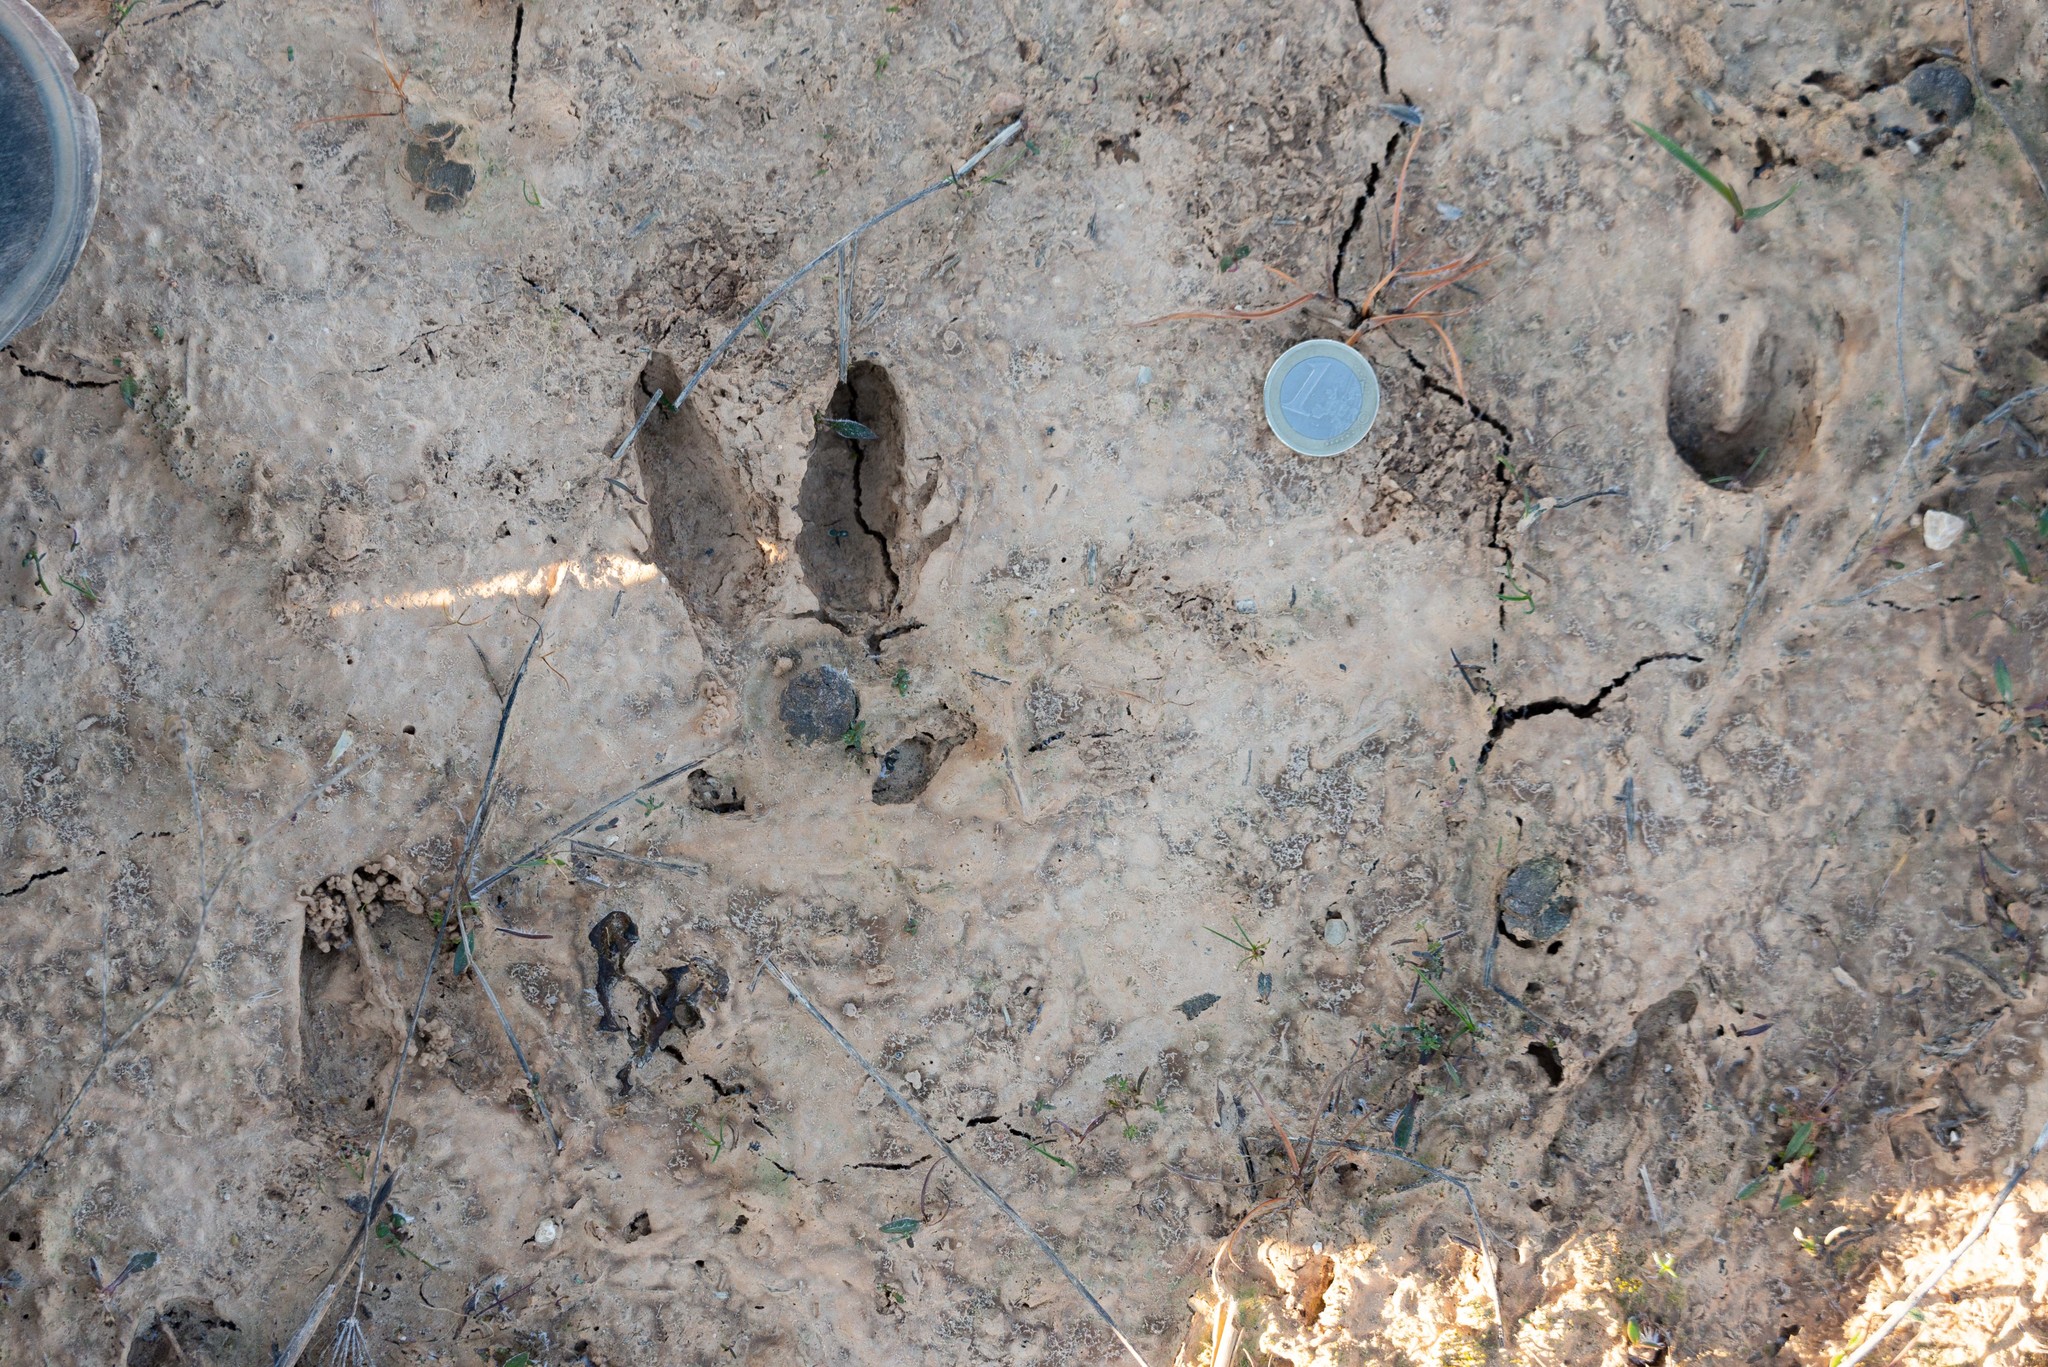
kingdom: Animalia
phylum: Chordata
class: Mammalia
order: Artiodactyla
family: Cervidae
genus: Capreolus
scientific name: Capreolus capreolus
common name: Western roe deer
